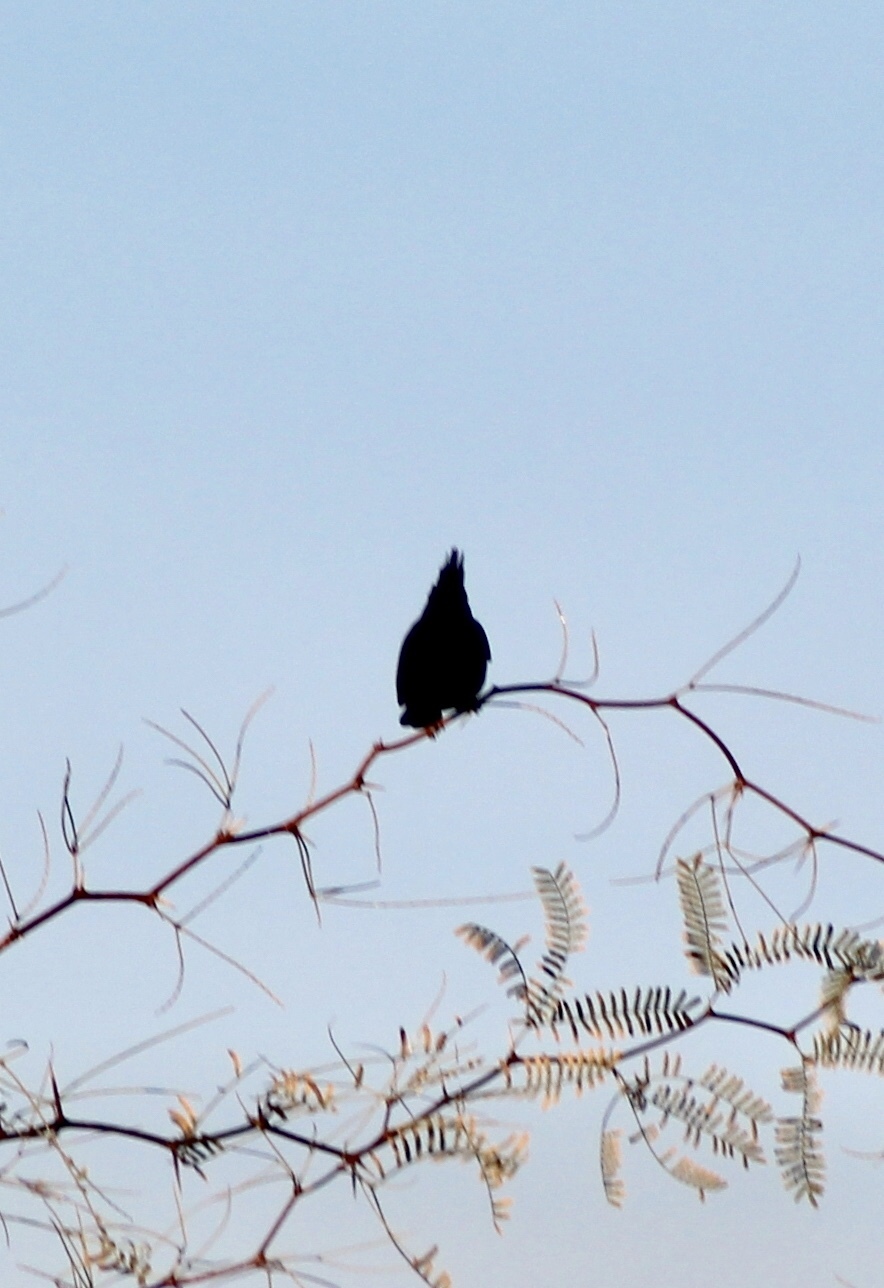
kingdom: Animalia
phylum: Chordata
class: Aves
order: Passeriformes
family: Ptilogonatidae
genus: Phainopepla
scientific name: Phainopepla nitens
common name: Phainopepla
